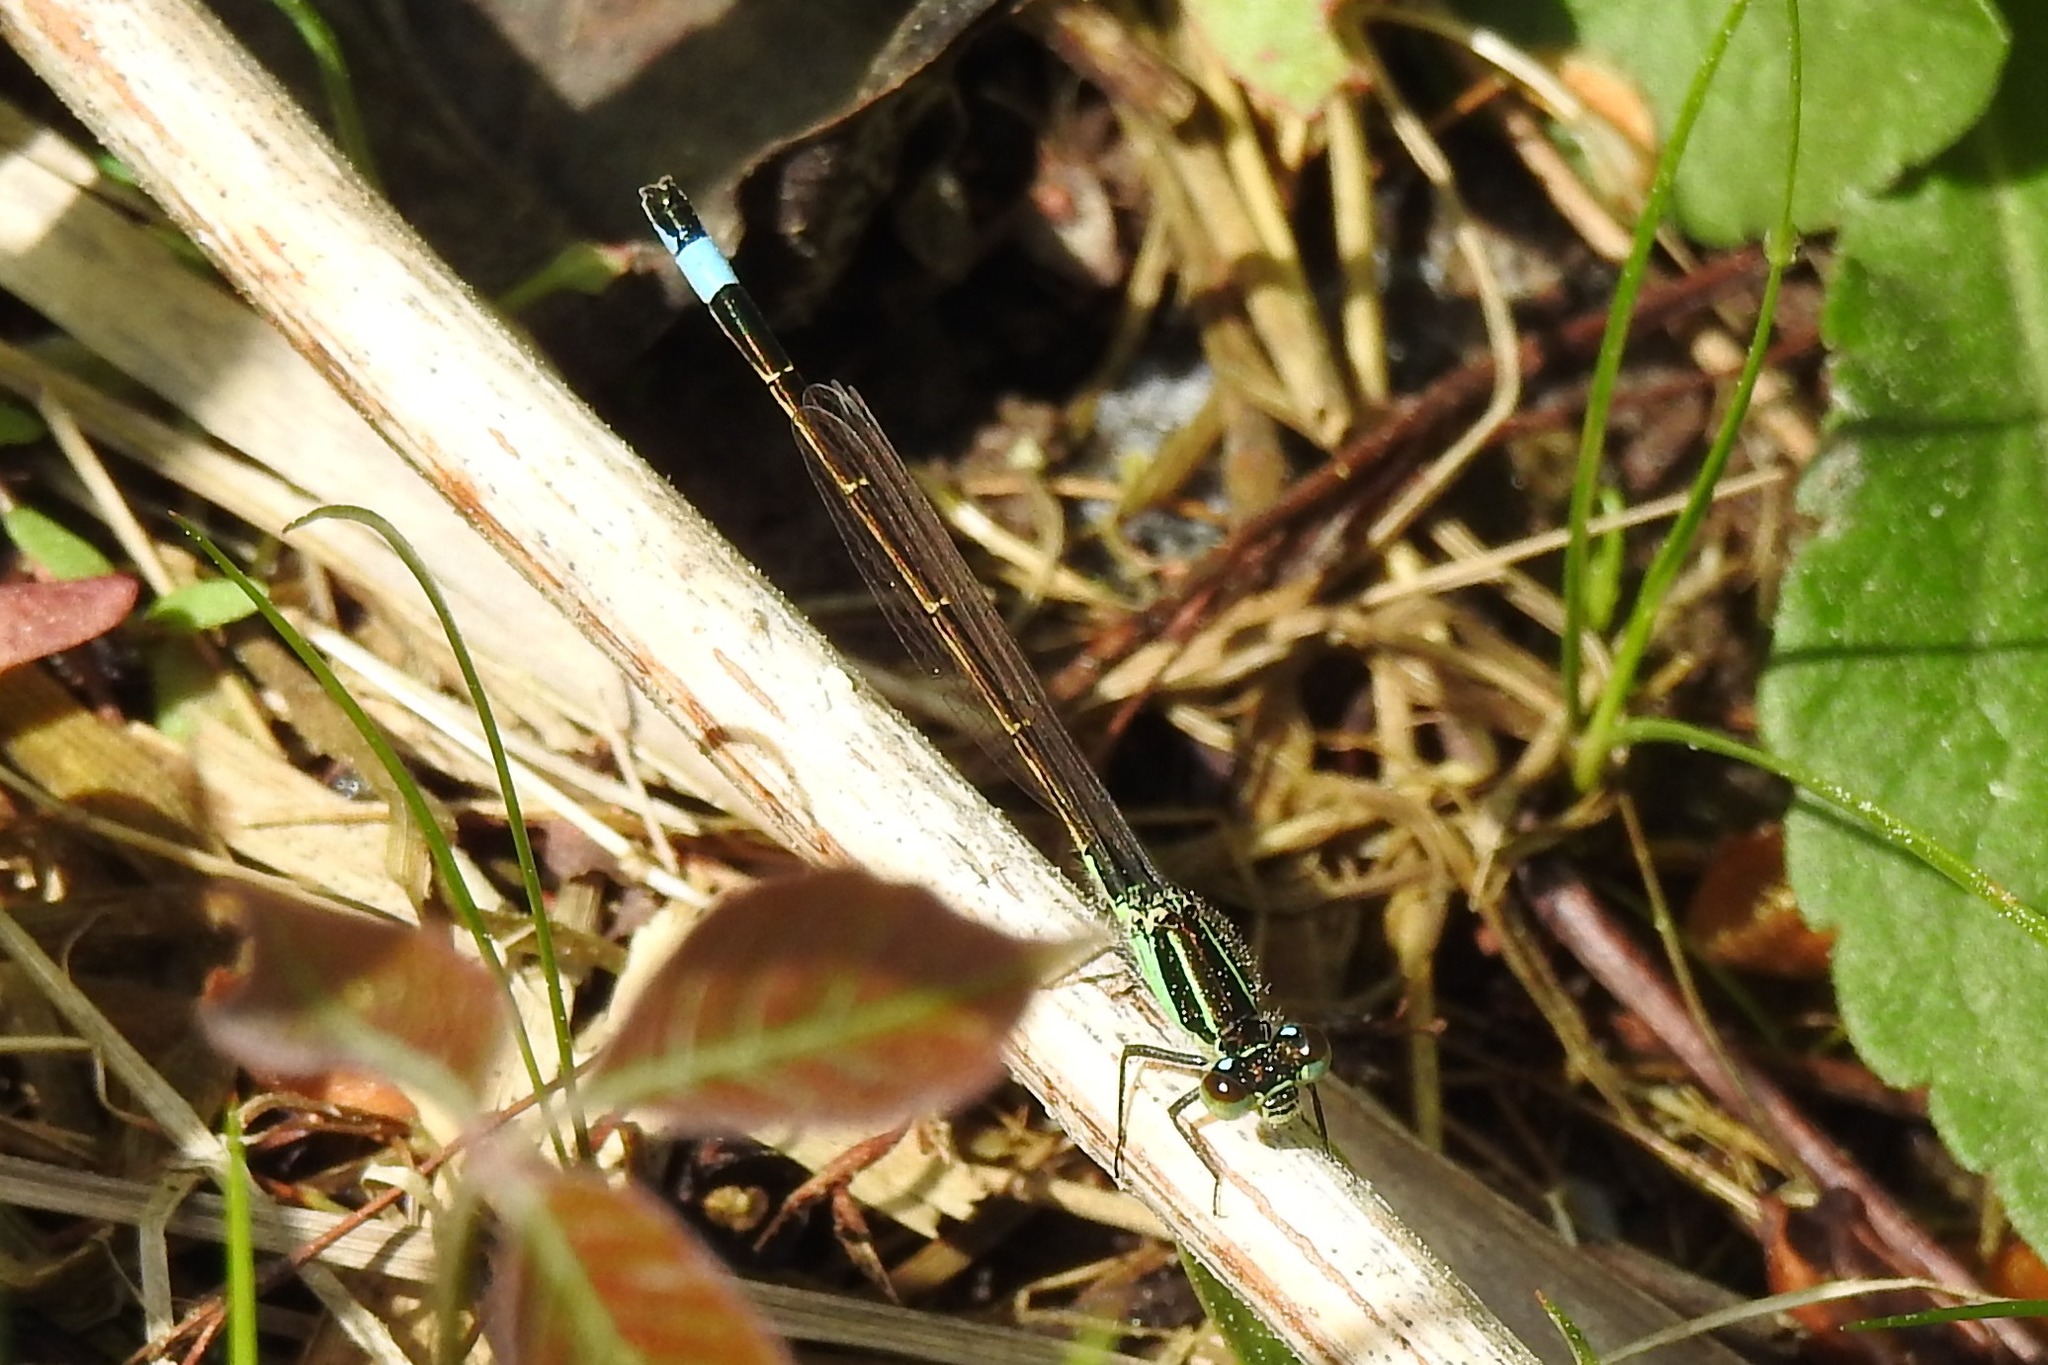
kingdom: Animalia
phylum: Arthropoda
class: Insecta
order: Odonata
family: Coenagrionidae
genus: Ischnura
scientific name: Ischnura ramburii
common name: Rambur's forktail
